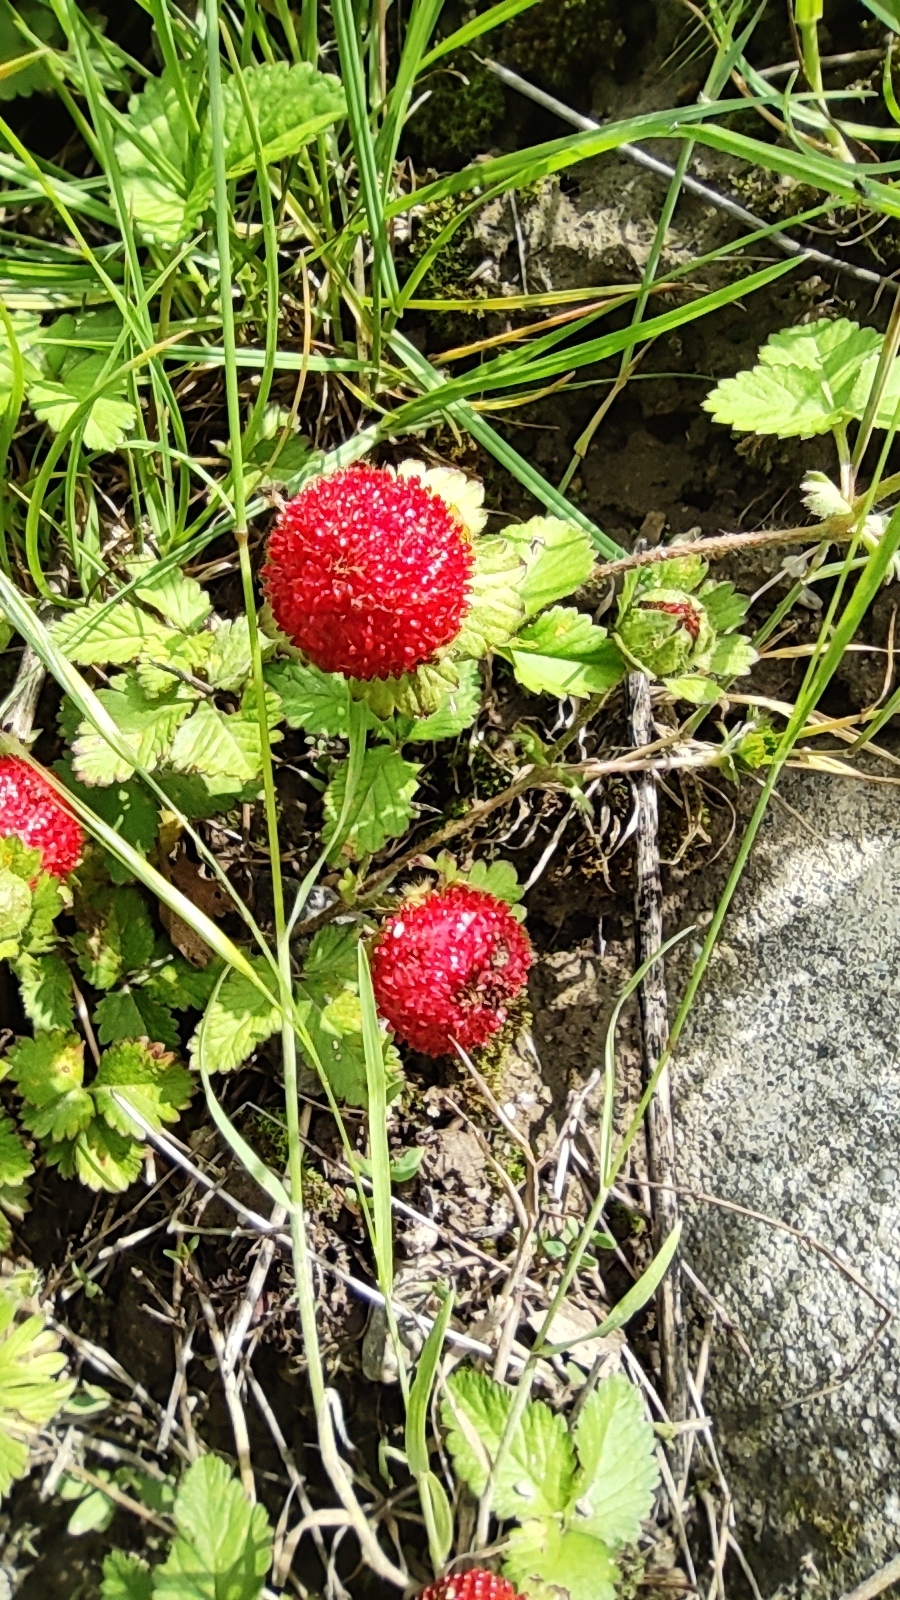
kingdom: Plantae
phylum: Tracheophyta
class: Magnoliopsida
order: Rosales
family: Rosaceae
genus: Potentilla
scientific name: Potentilla indica
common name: Yellow-flowered strawberry
